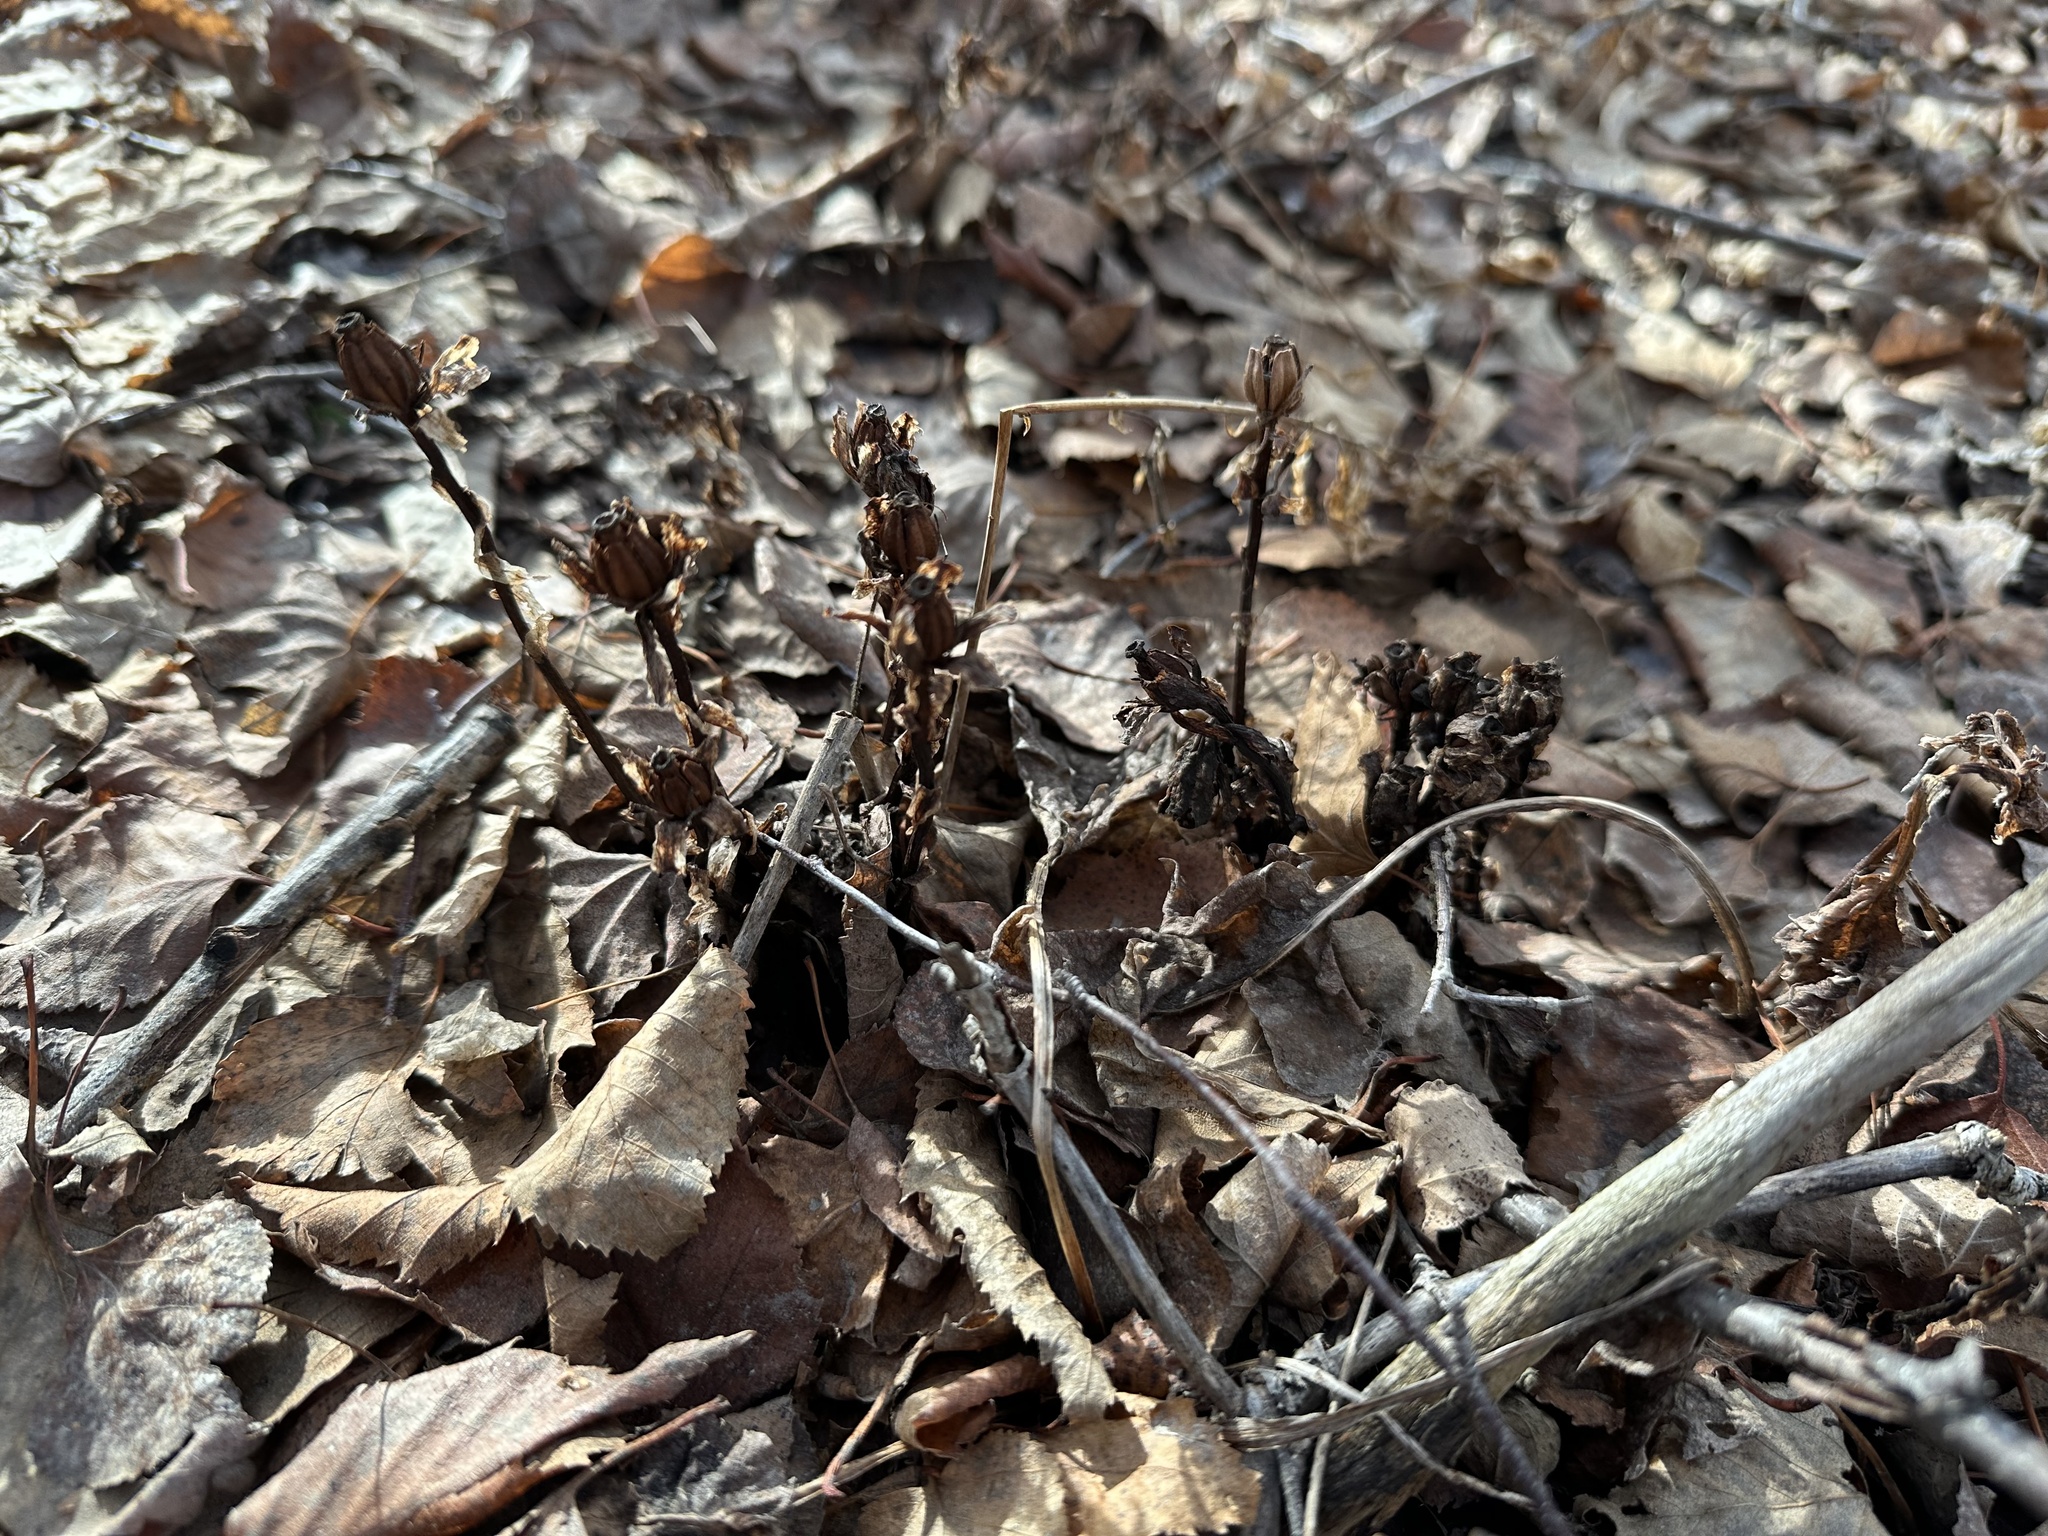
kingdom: Plantae
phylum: Tracheophyta
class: Magnoliopsida
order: Ericales
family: Ericaceae
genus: Monotropa
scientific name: Monotropa uniflora
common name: Convulsion root
